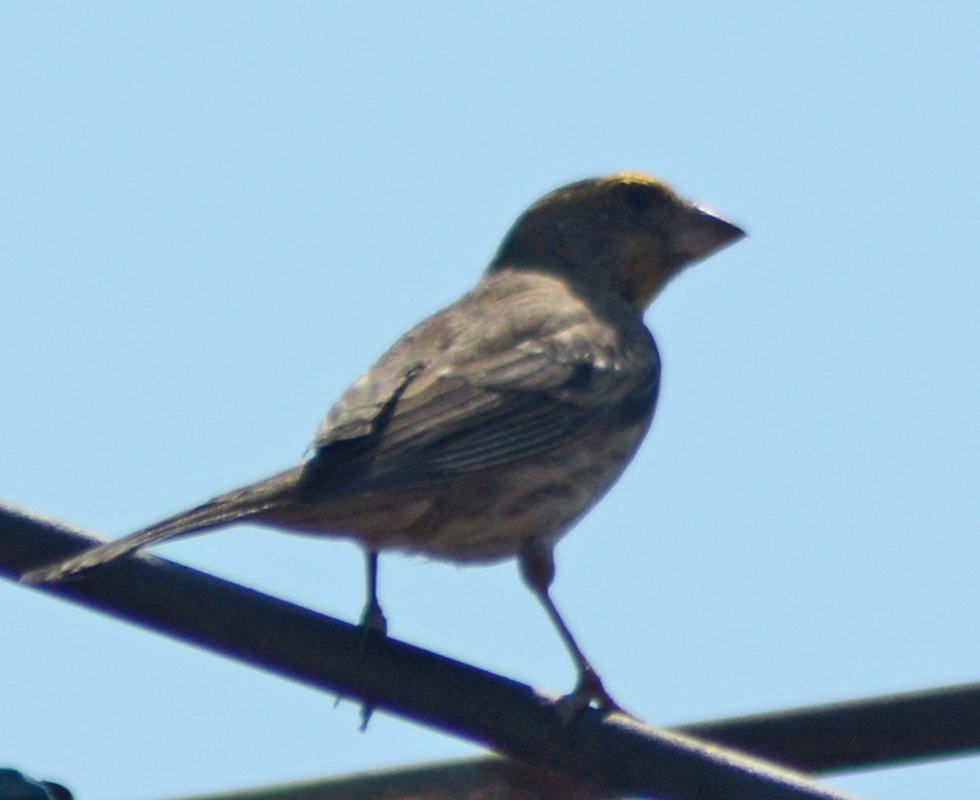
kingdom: Animalia
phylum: Chordata
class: Aves
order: Passeriformes
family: Fringillidae
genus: Haemorhous
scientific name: Haemorhous mexicanus
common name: House finch
